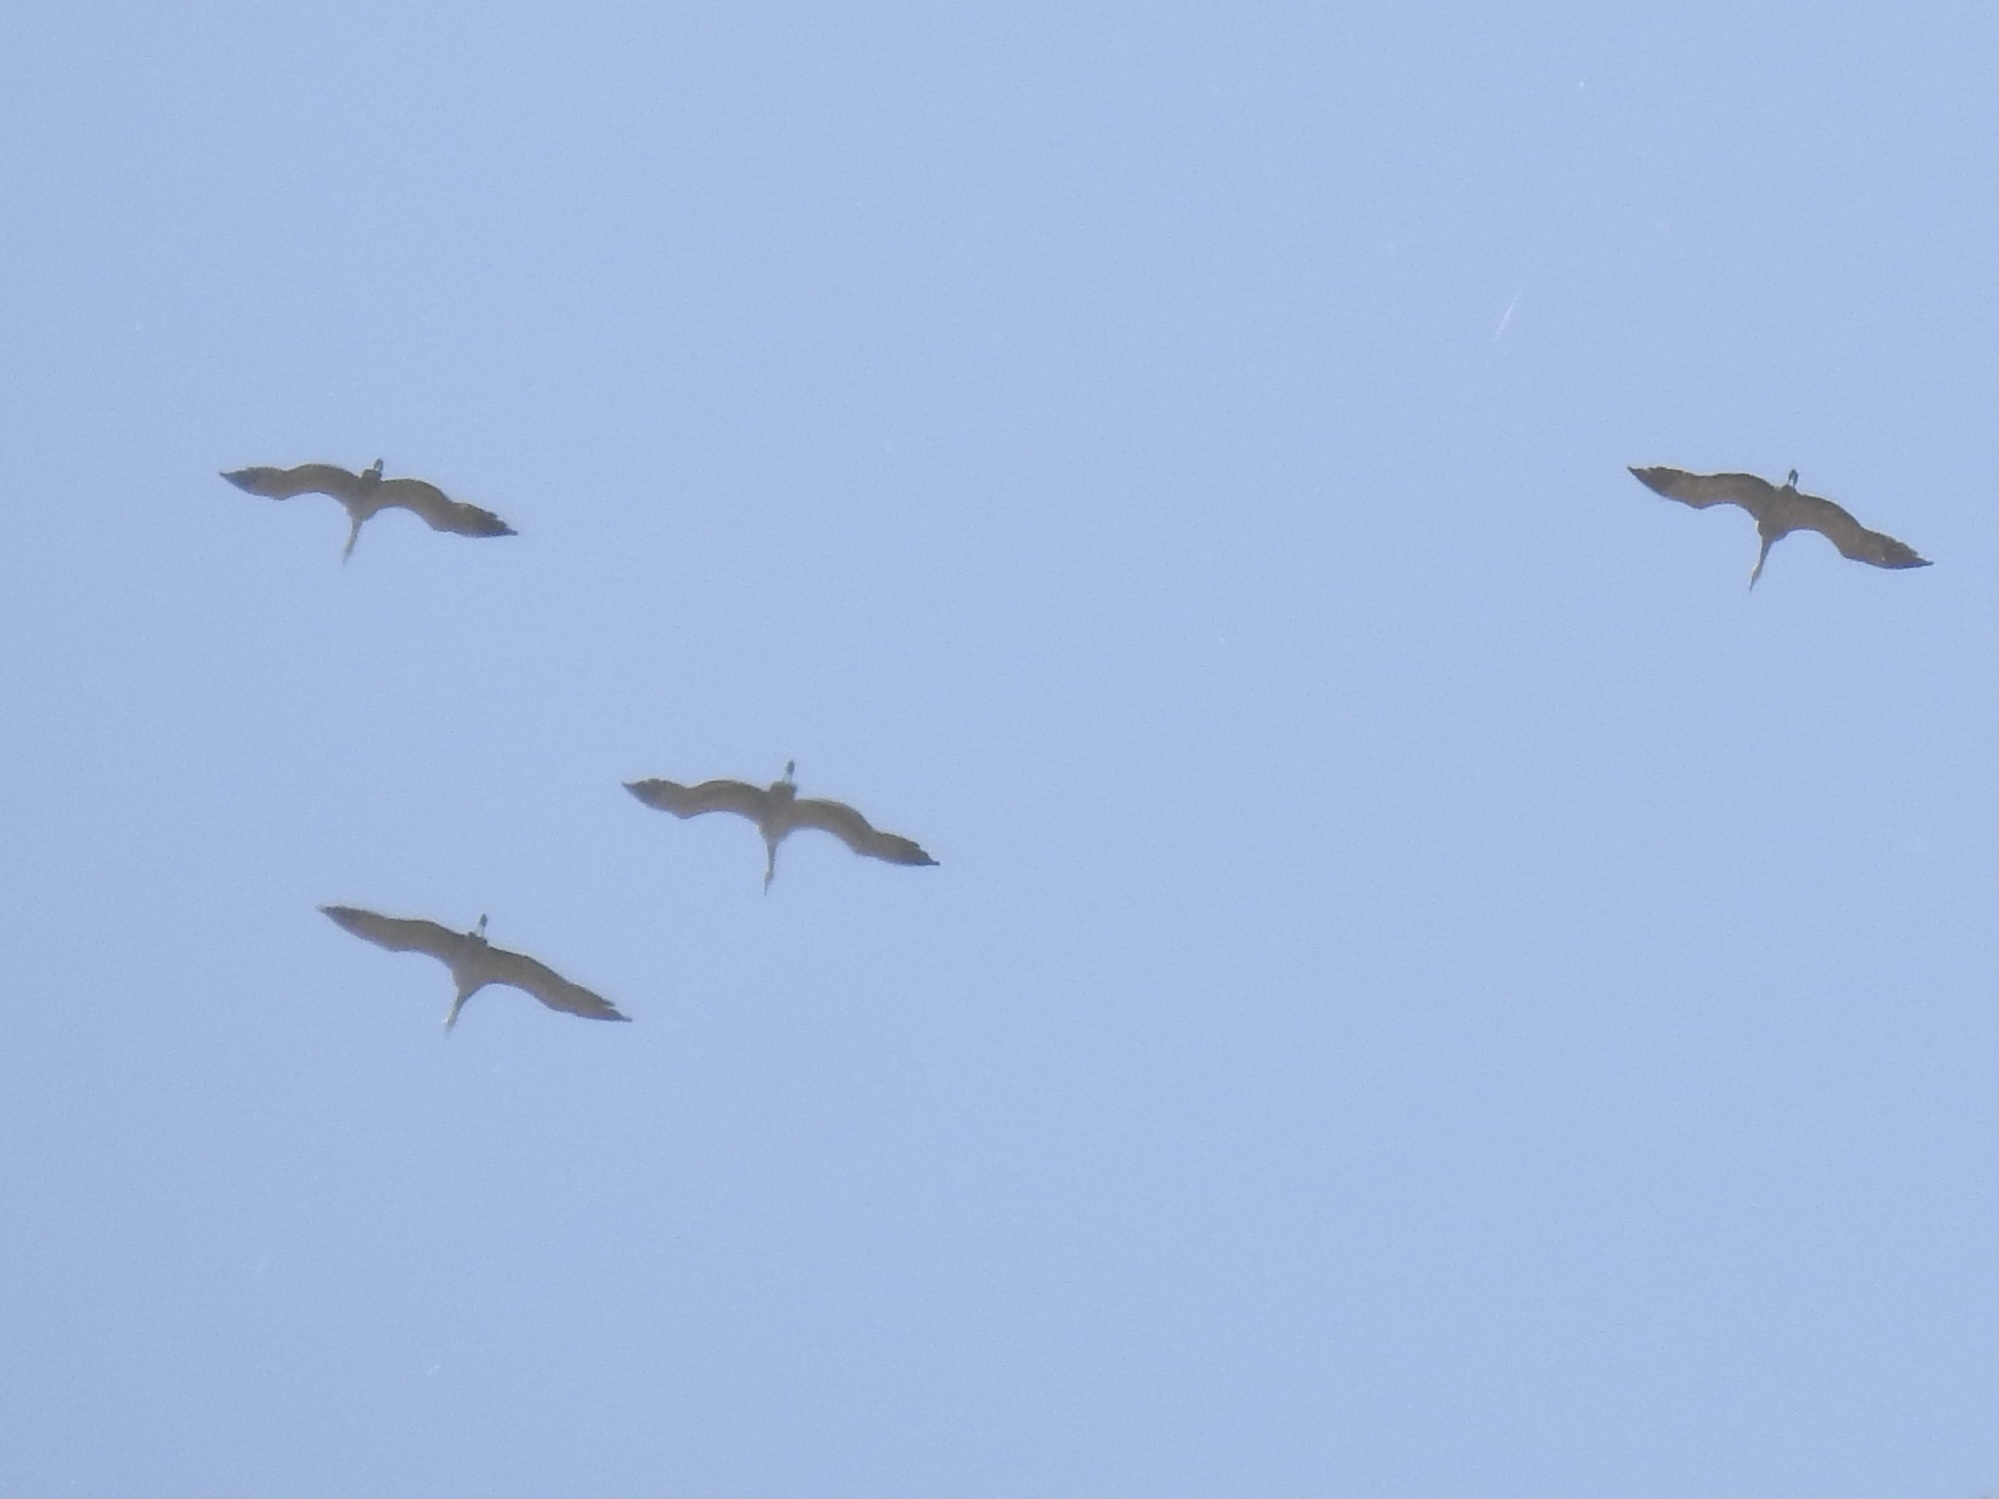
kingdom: Animalia
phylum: Chordata
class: Aves
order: Gruiformes
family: Gruidae
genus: Grus
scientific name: Grus canadensis
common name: Sandhill crane
